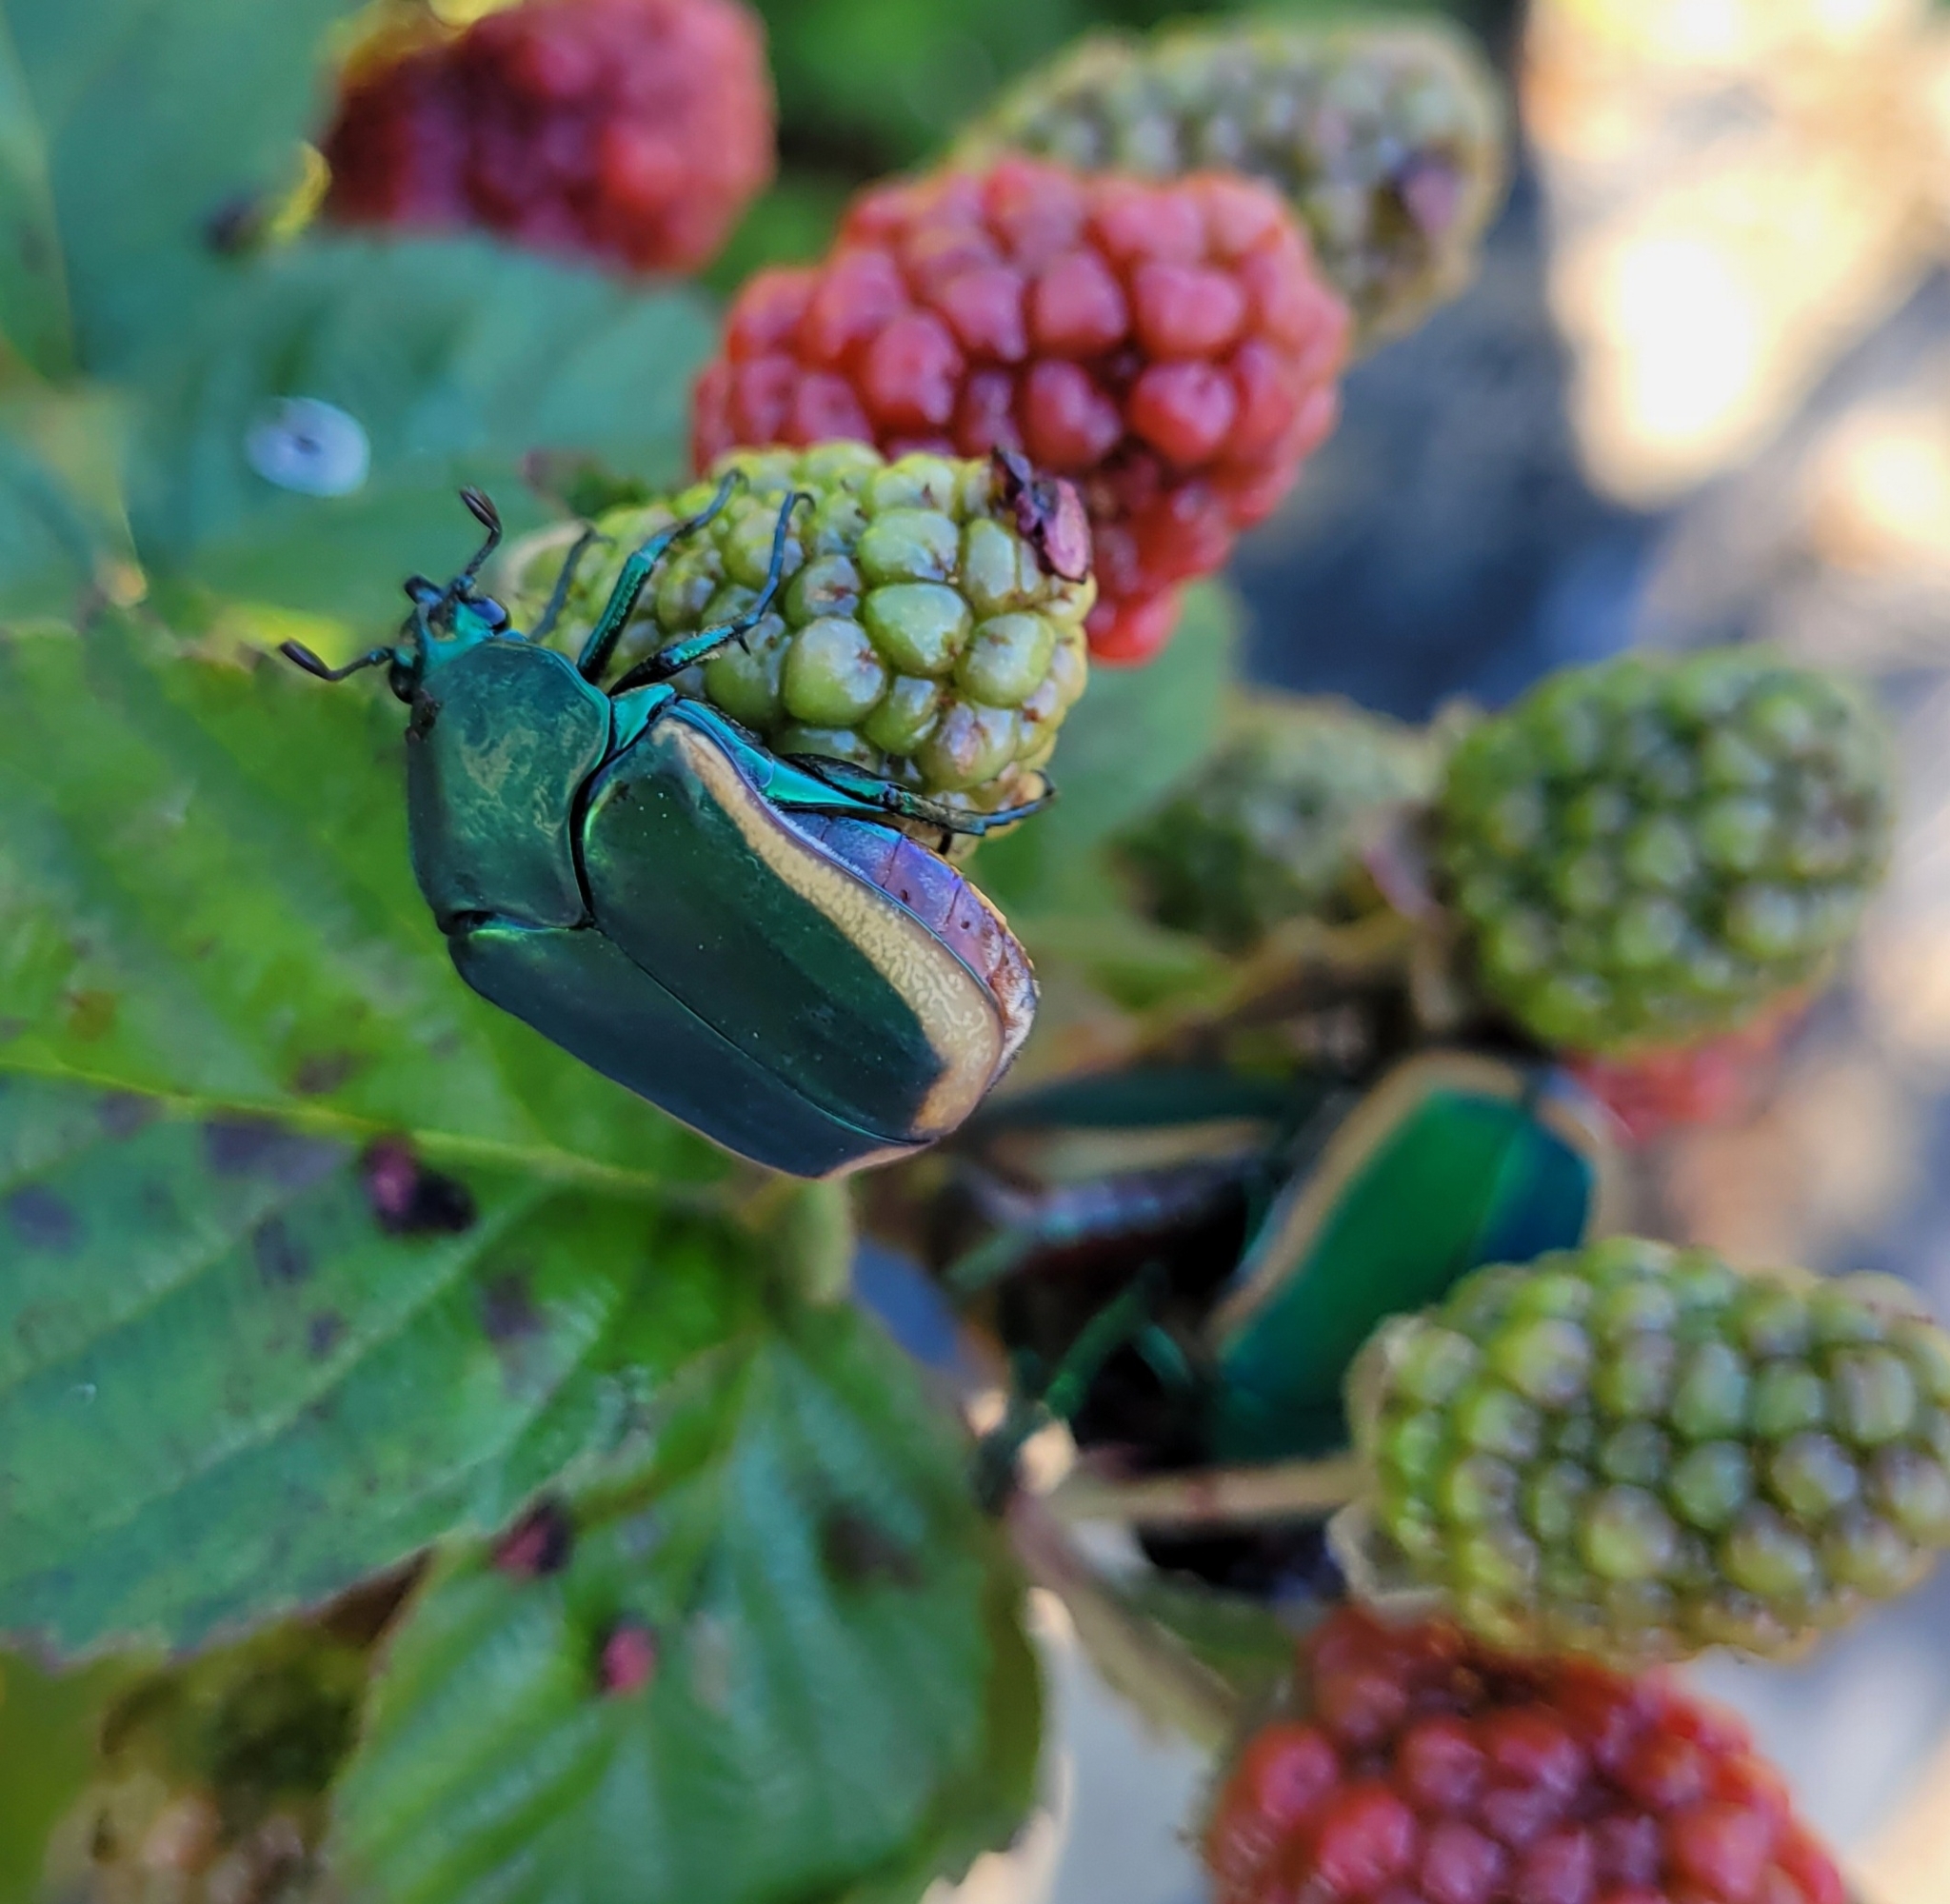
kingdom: Animalia
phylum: Arthropoda
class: Insecta
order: Coleoptera
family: Scarabaeidae
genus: Cotinis
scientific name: Cotinis mutabilis
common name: Figeater beetle
